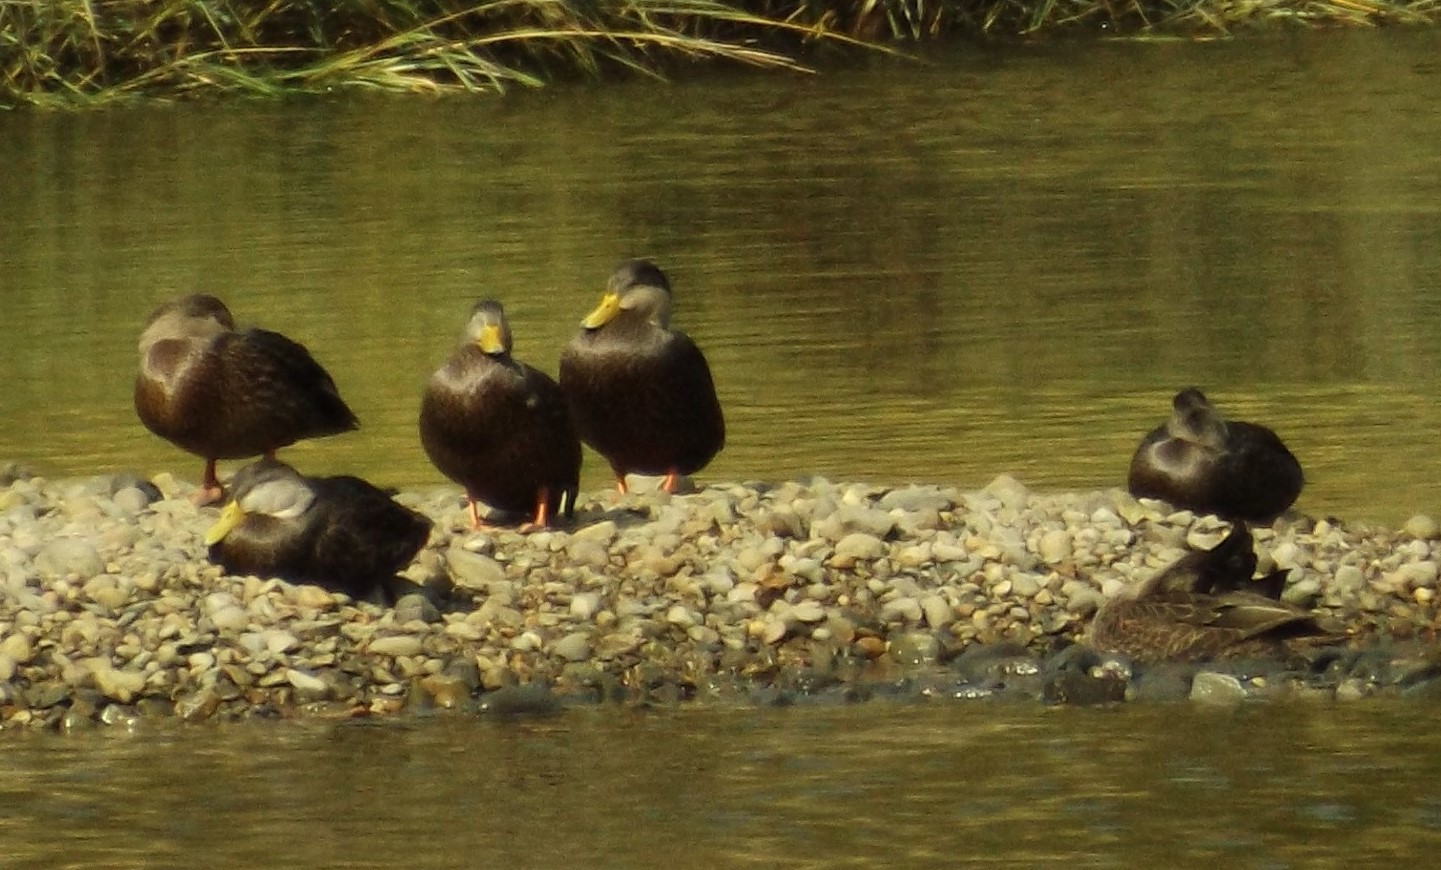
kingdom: Animalia
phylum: Chordata
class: Aves
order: Anseriformes
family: Anatidae
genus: Anas
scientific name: Anas rubripes
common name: American black duck
